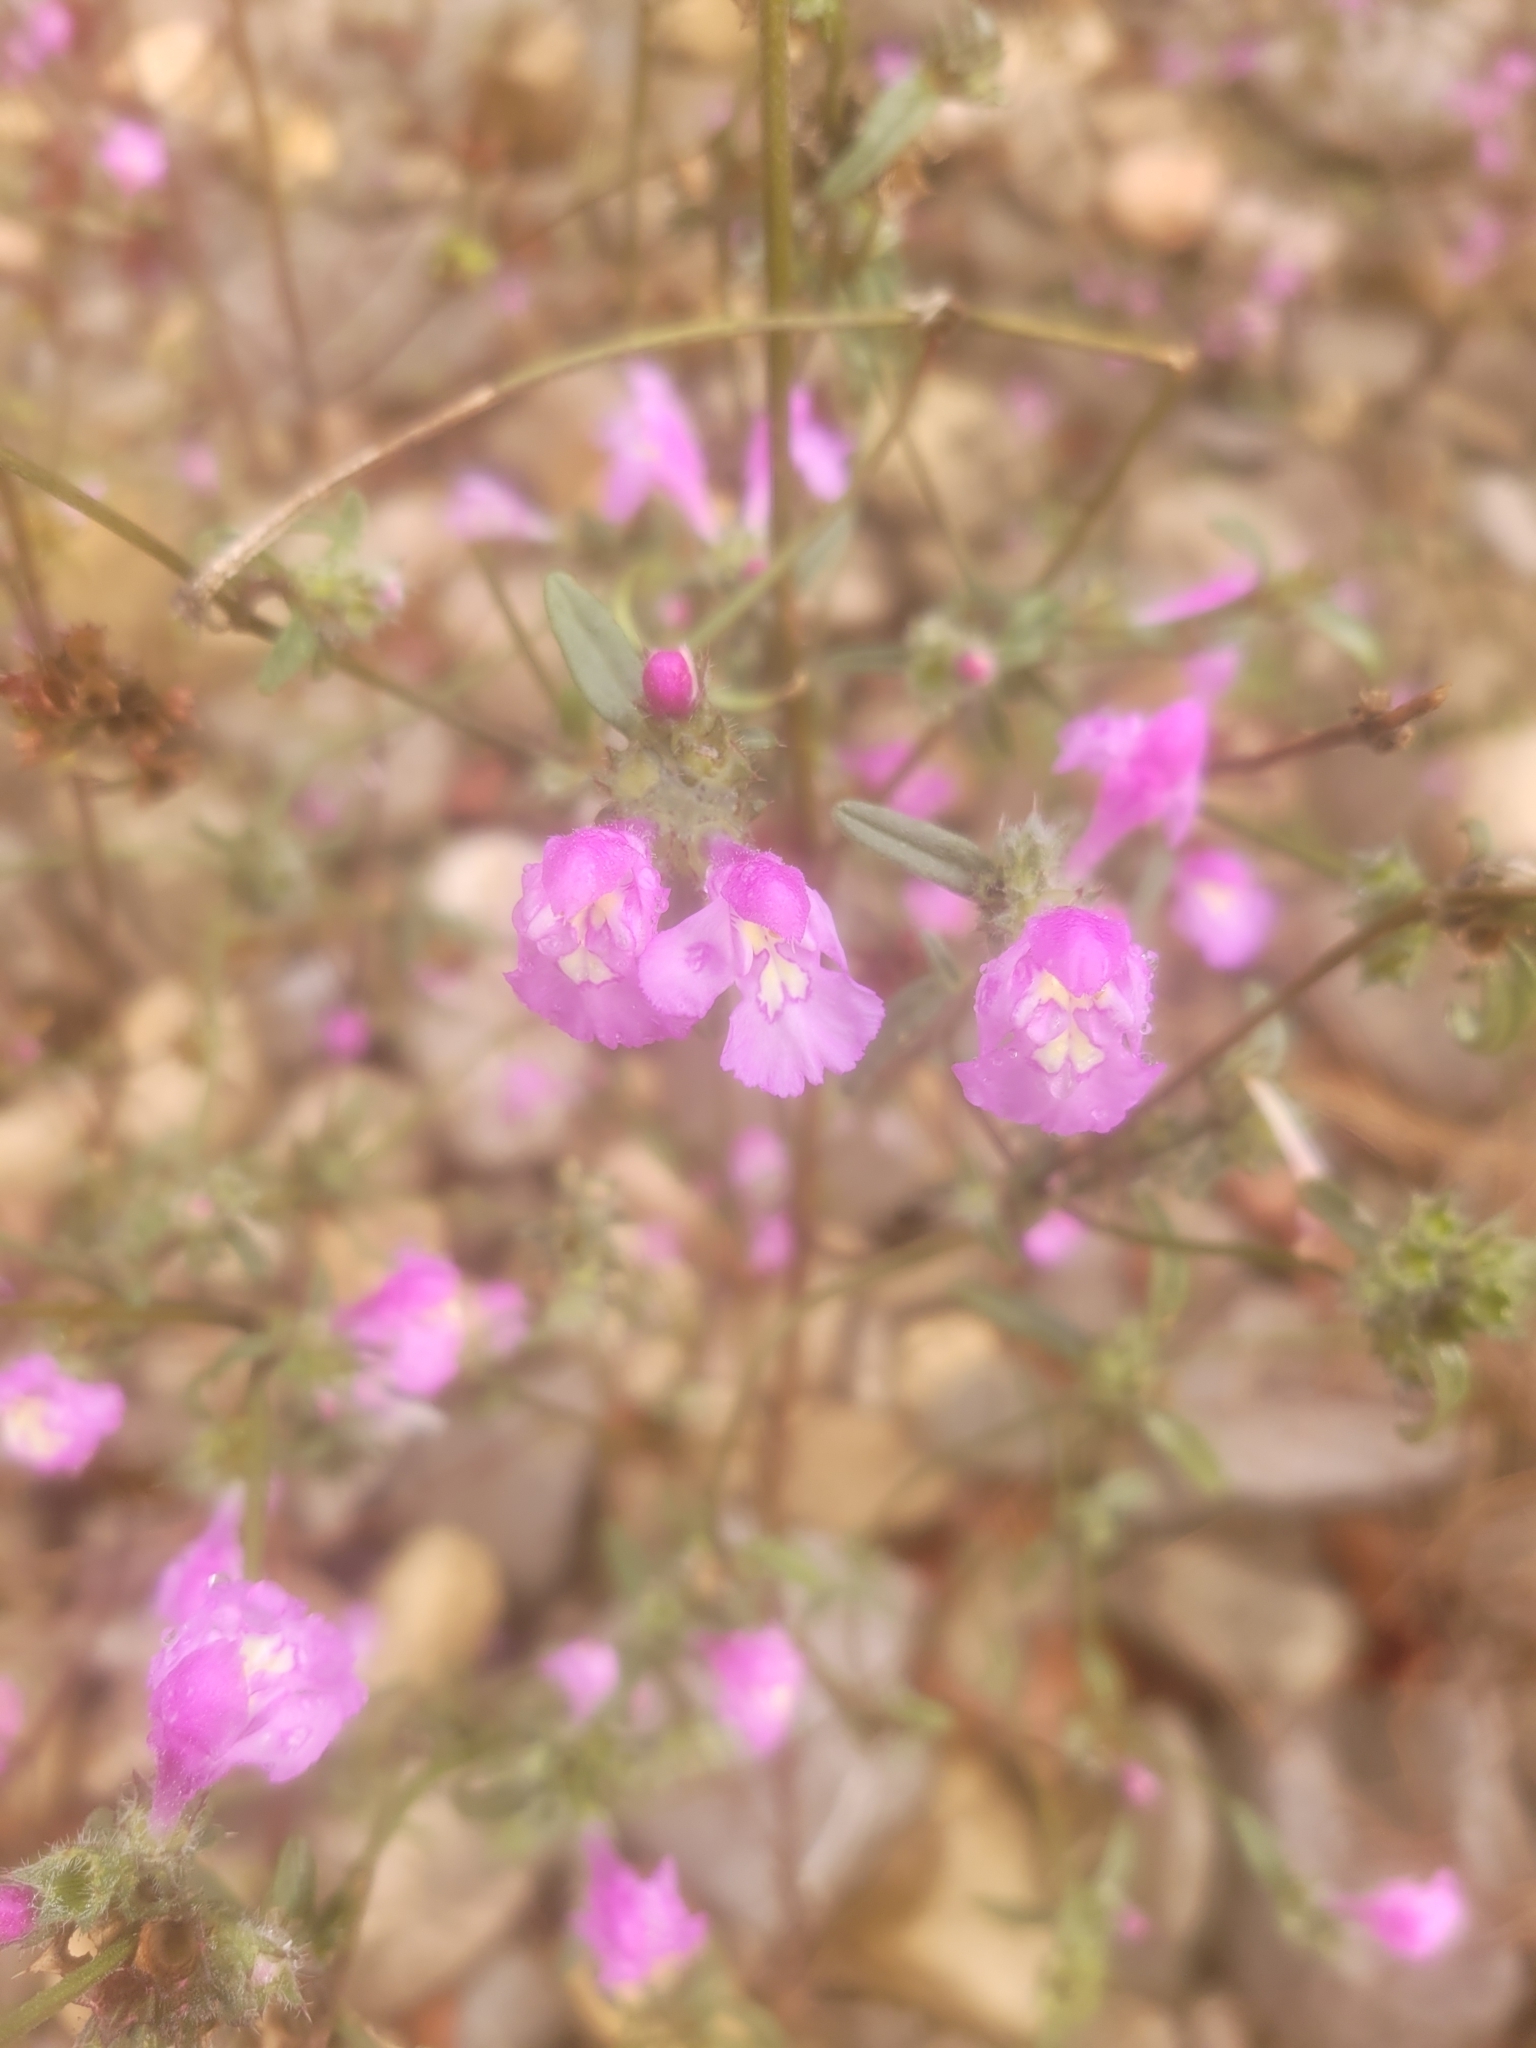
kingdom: Plantae
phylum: Tracheophyta
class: Magnoliopsida
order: Lamiales
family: Lamiaceae
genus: Galeopsis
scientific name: Galeopsis angustifolia
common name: Red hemp-nettle
